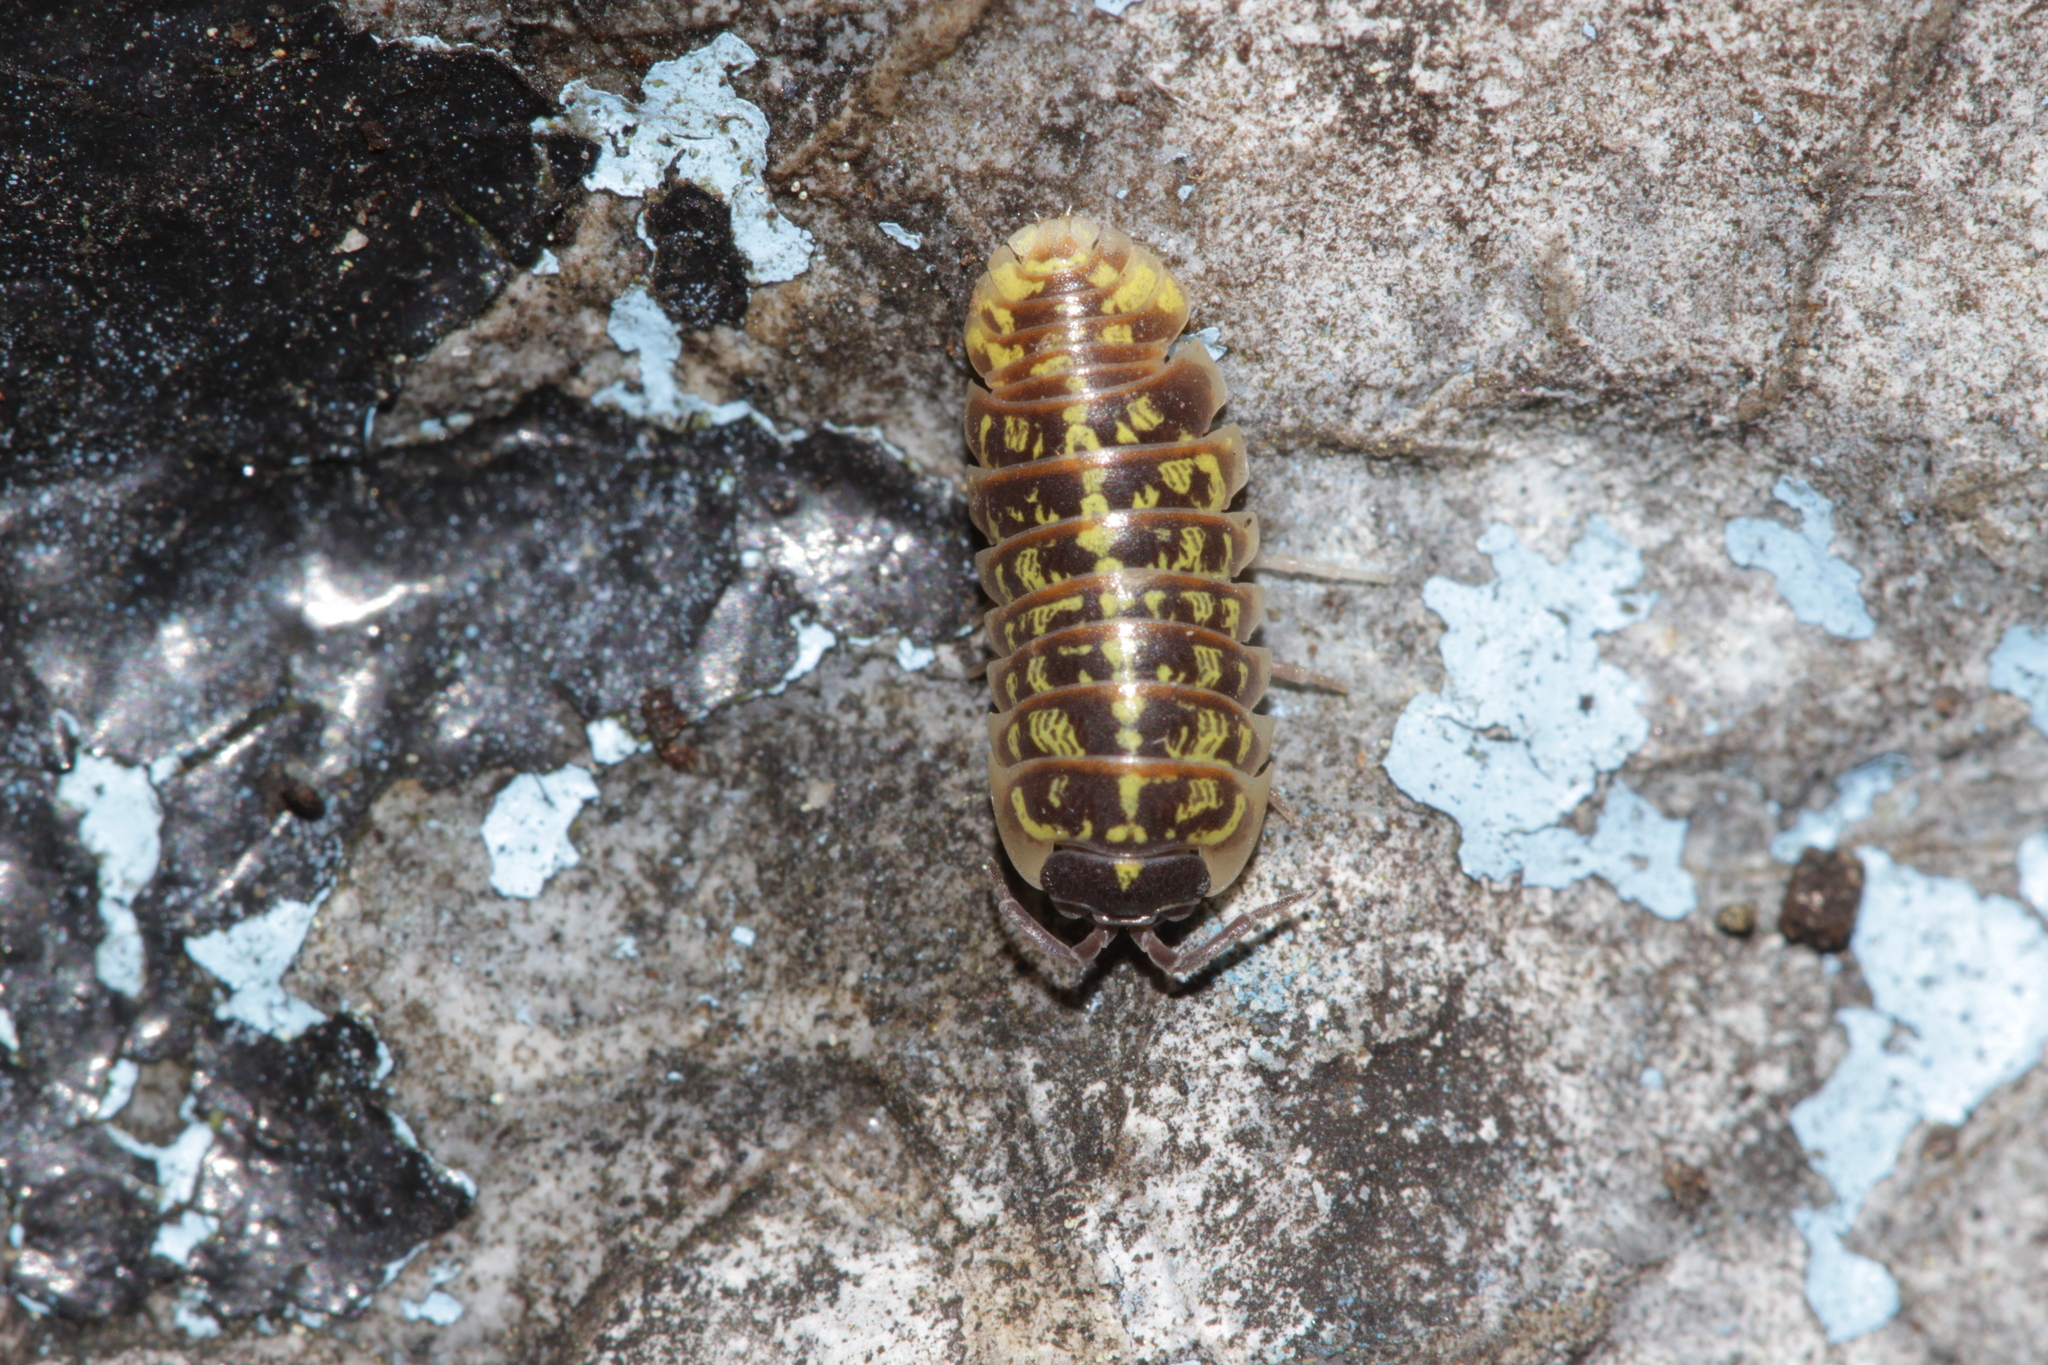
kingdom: Animalia
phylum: Arthropoda
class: Malacostraca
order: Isopoda
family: Armadillidiidae
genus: Armadillidium
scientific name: Armadillidium versicolor
